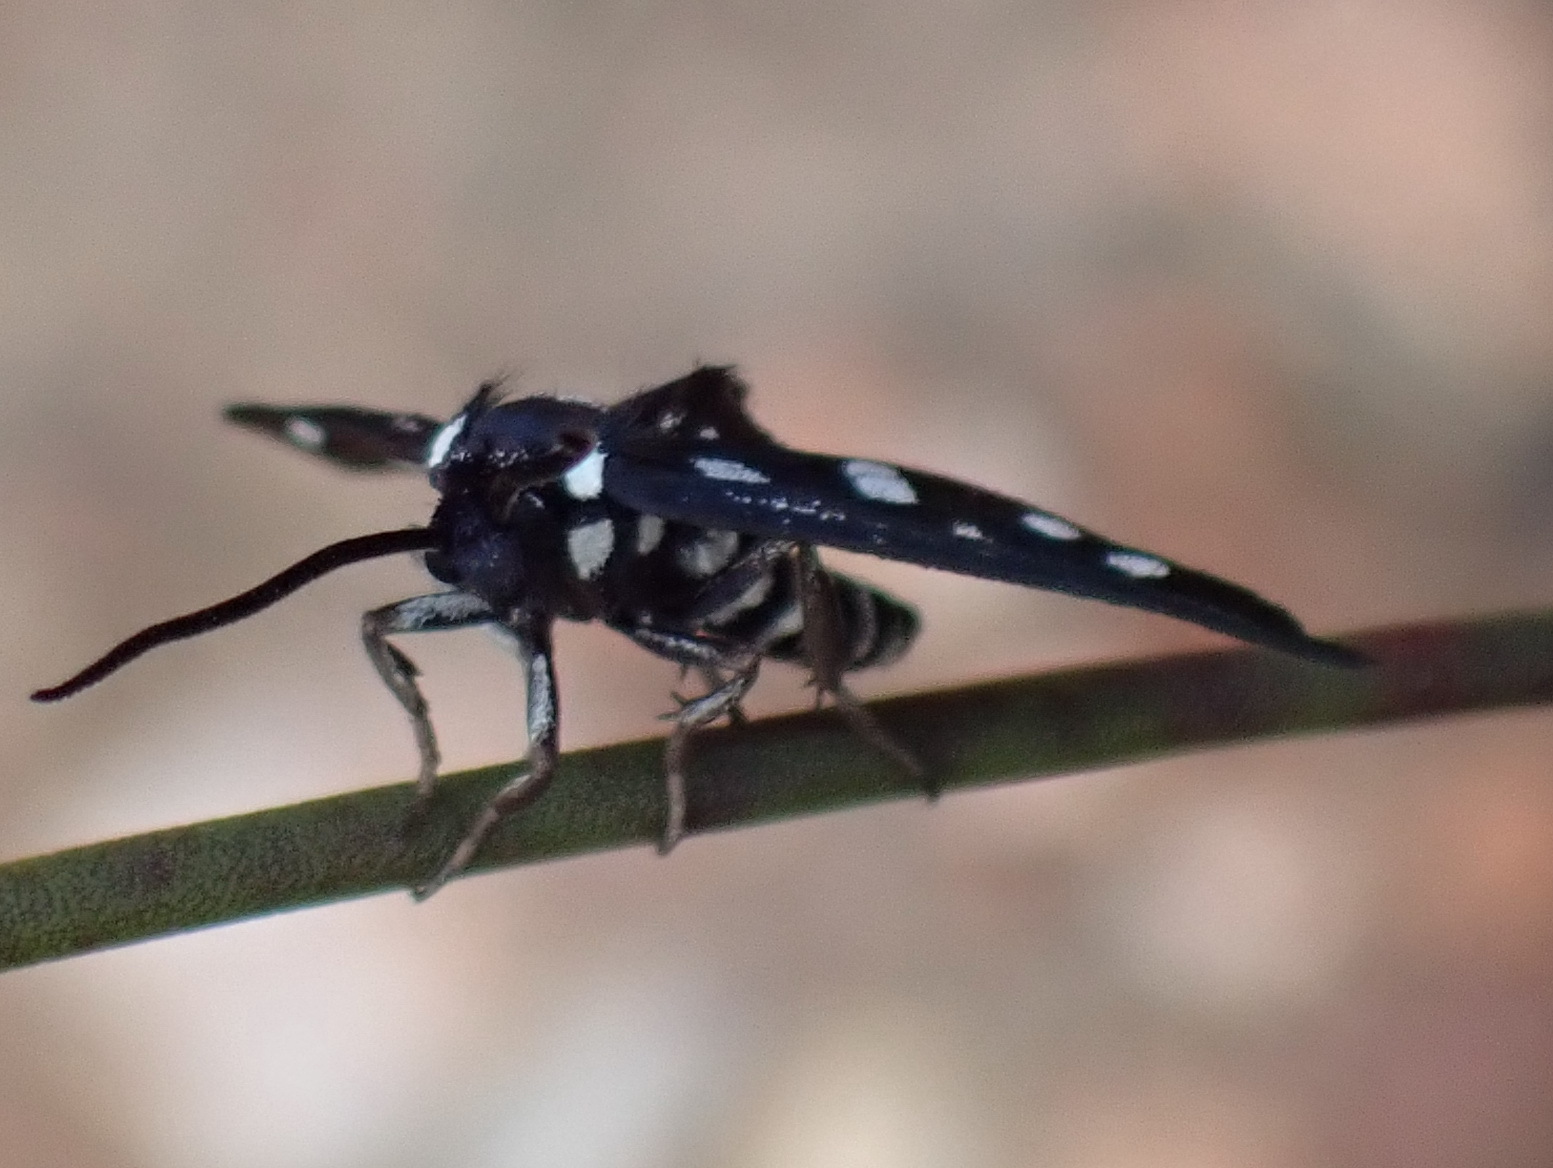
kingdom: Animalia
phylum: Arthropoda
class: Insecta
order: Lepidoptera
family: Erebidae
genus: Amata
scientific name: Amata khoisana
